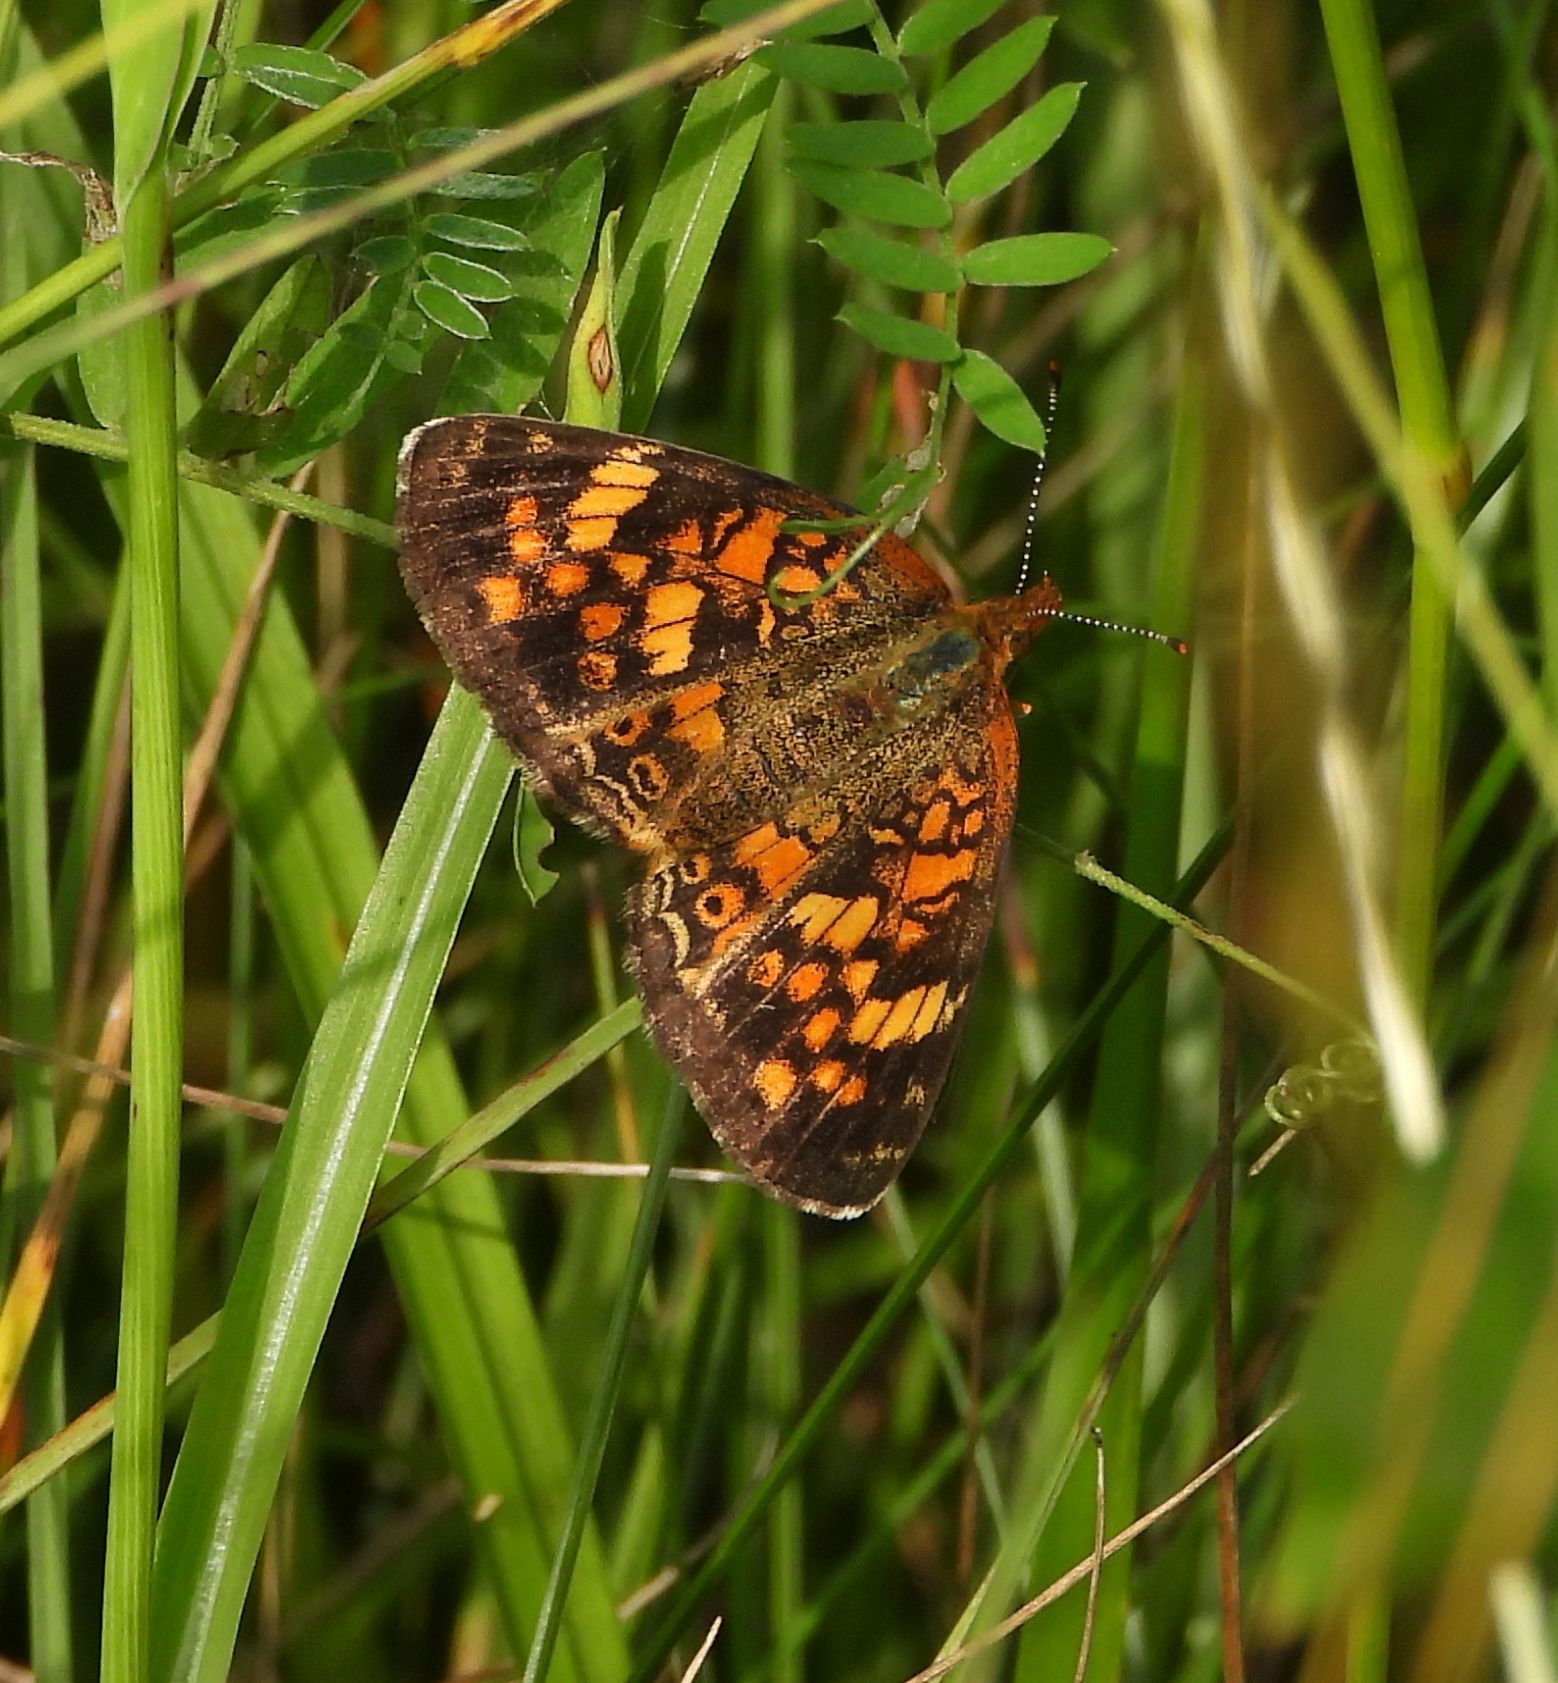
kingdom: Animalia
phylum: Arthropoda
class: Insecta
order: Lepidoptera
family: Nymphalidae
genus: Phyciodes
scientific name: Phyciodes tharos
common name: Pearl crescent
